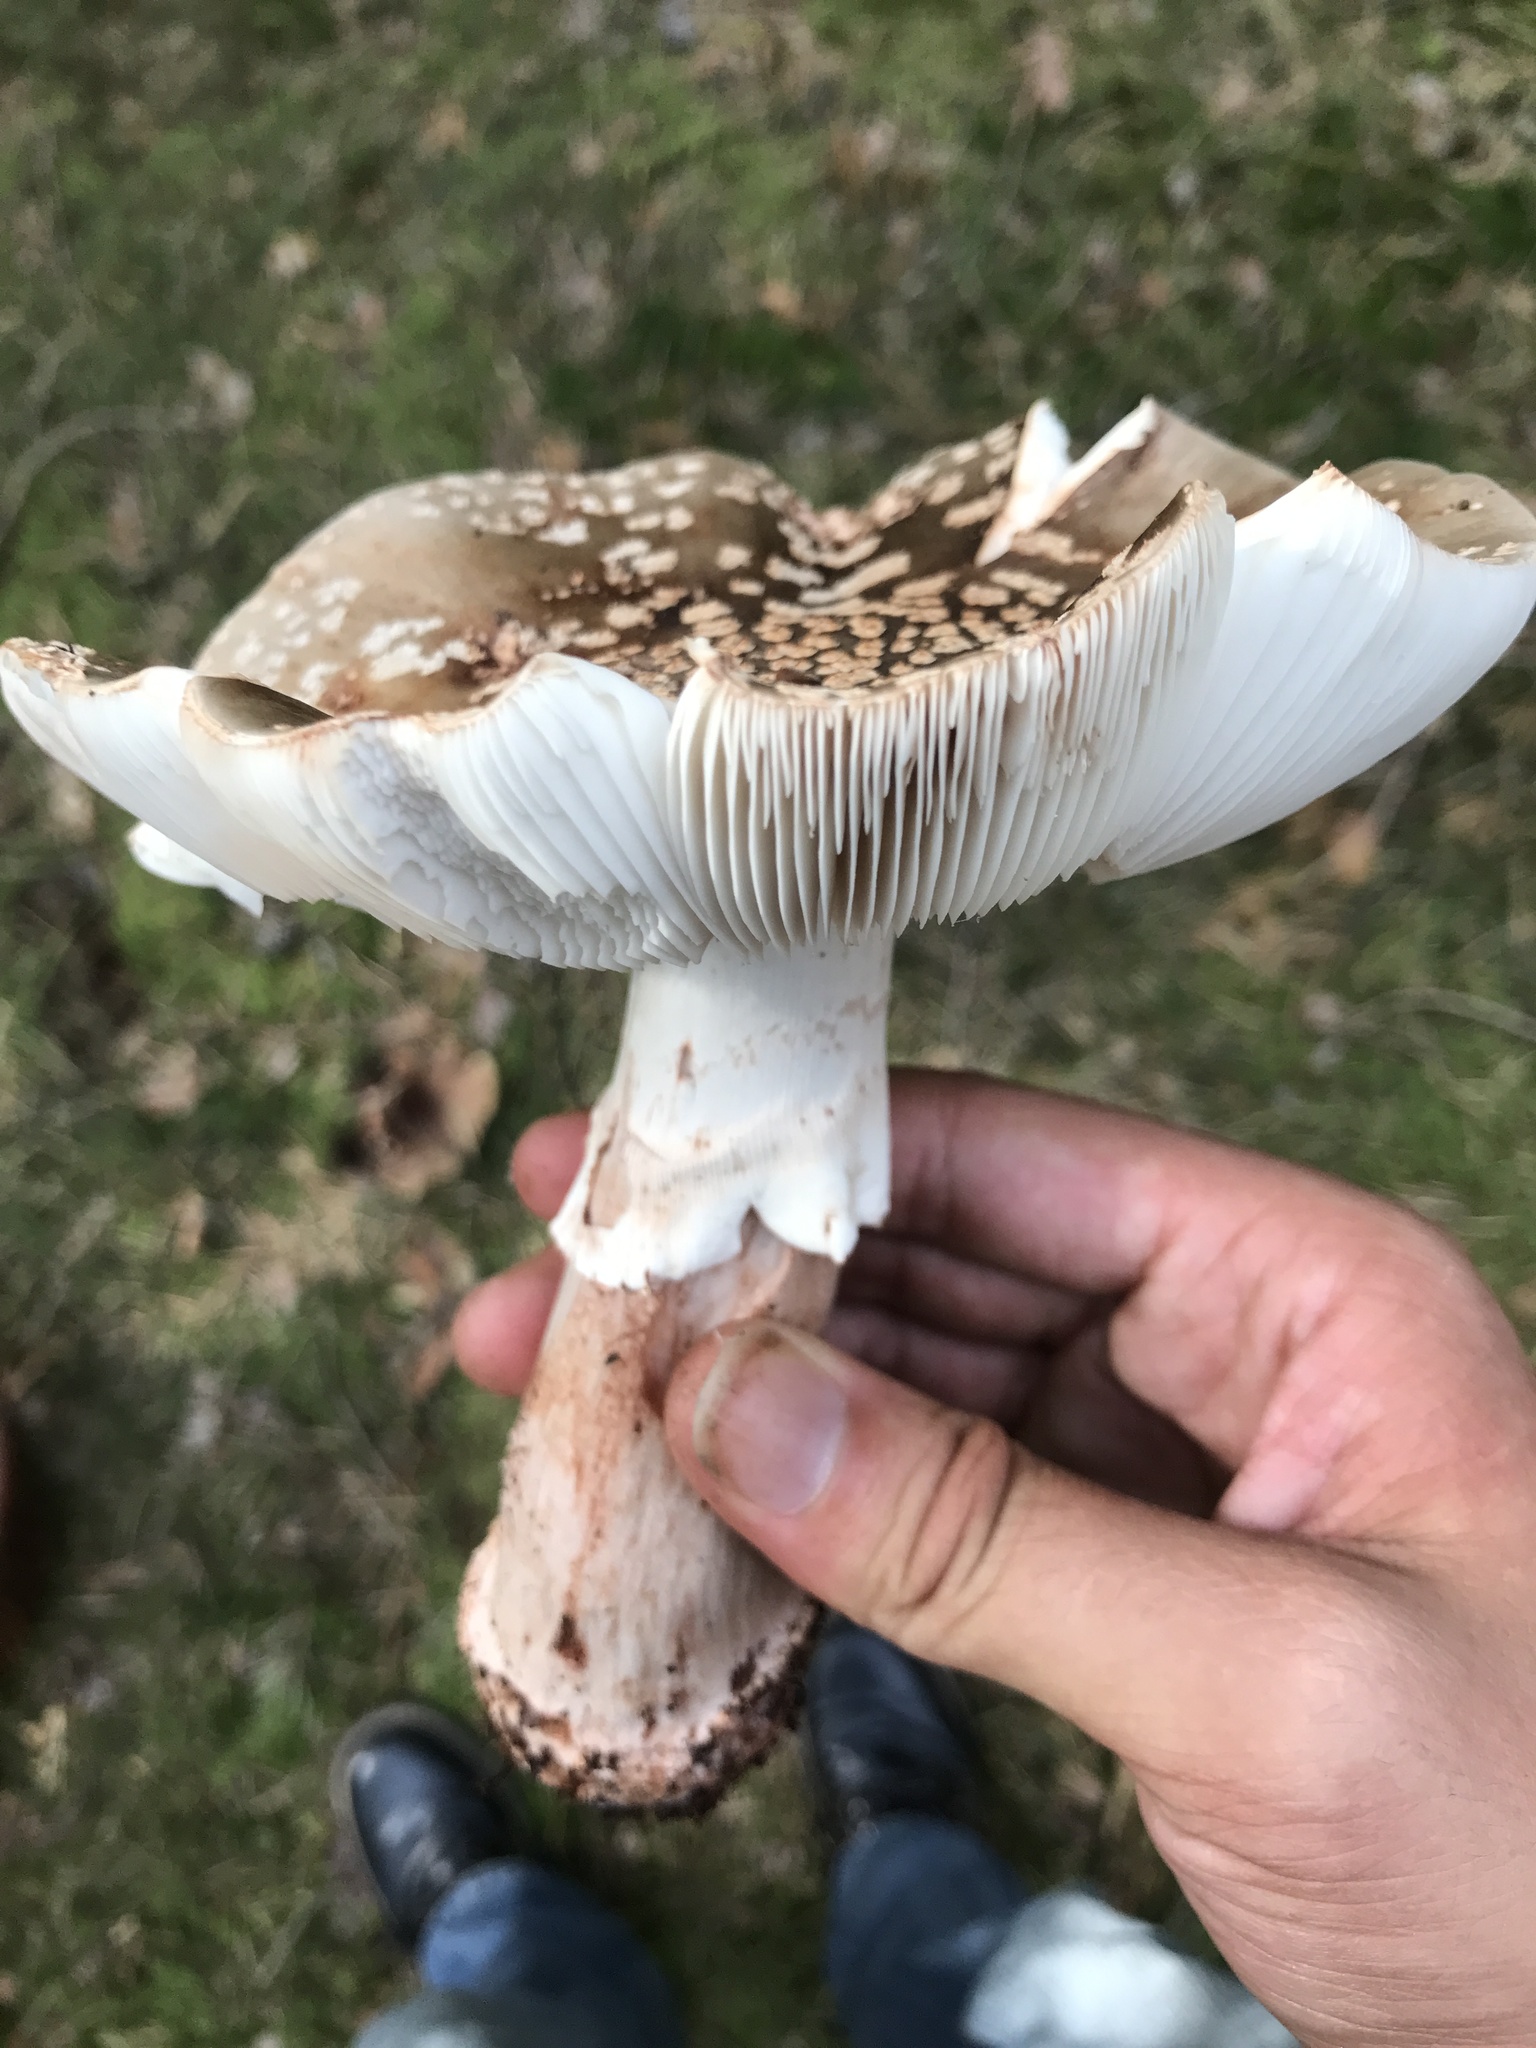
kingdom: Fungi
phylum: Basidiomycota
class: Agaricomycetes
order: Agaricales
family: Amanitaceae
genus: Amanita
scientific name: Amanita rubescens
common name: Blusher
